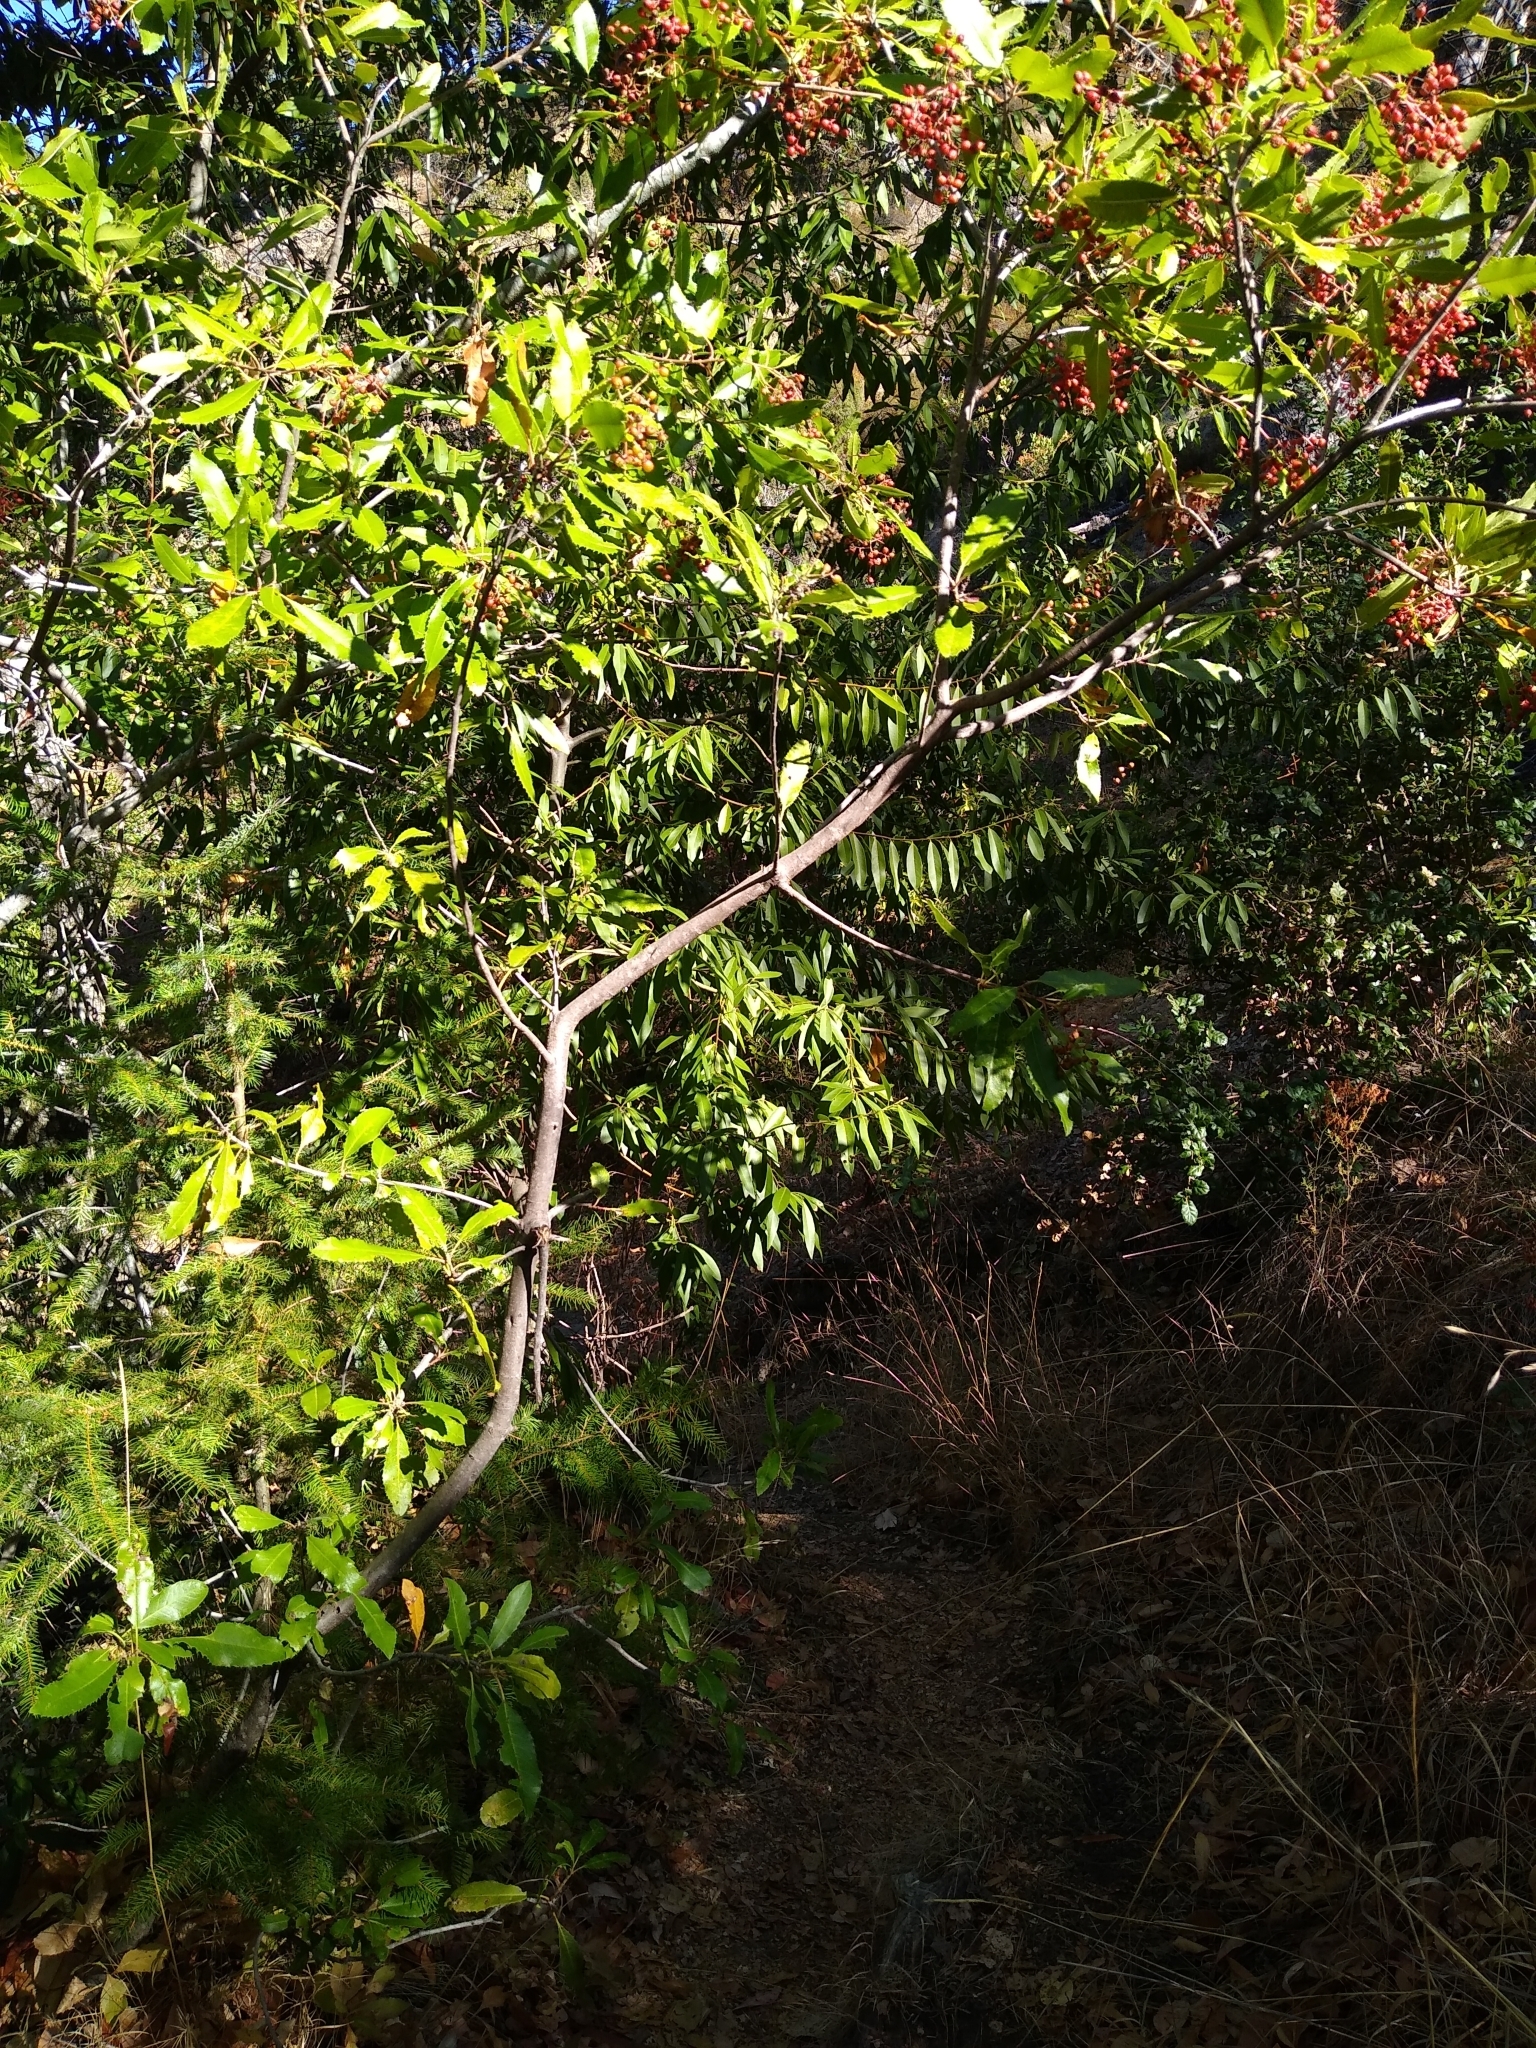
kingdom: Plantae
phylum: Tracheophyta
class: Magnoliopsida
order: Rosales
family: Rosaceae
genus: Heteromeles
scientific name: Heteromeles arbutifolia
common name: California-holly
